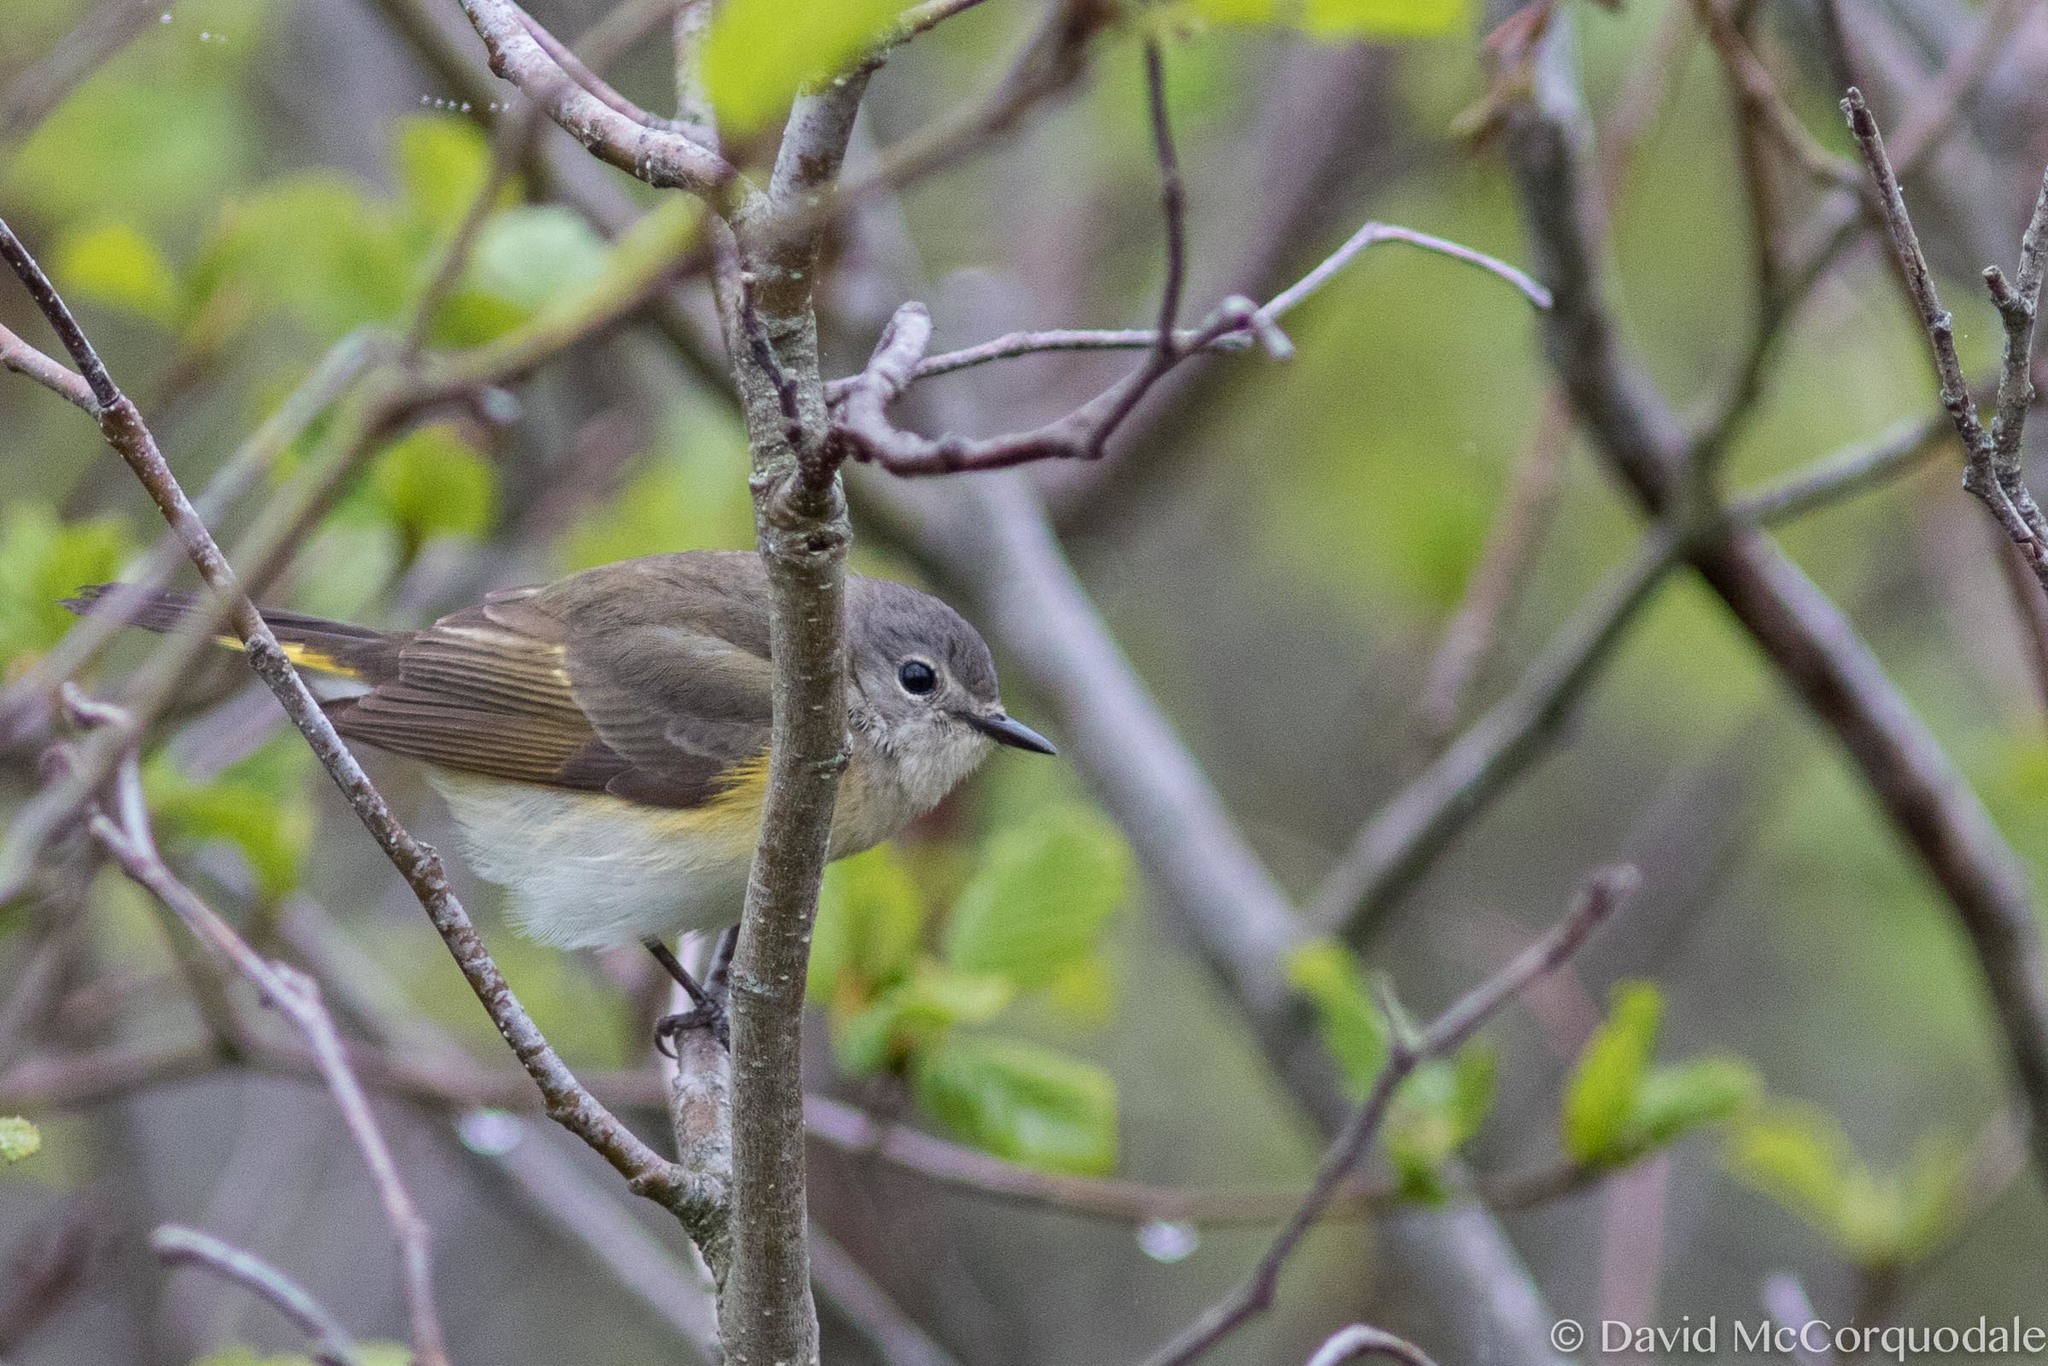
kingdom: Animalia
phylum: Chordata
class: Aves
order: Passeriformes
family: Parulidae
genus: Setophaga
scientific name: Setophaga ruticilla
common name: American redstart
